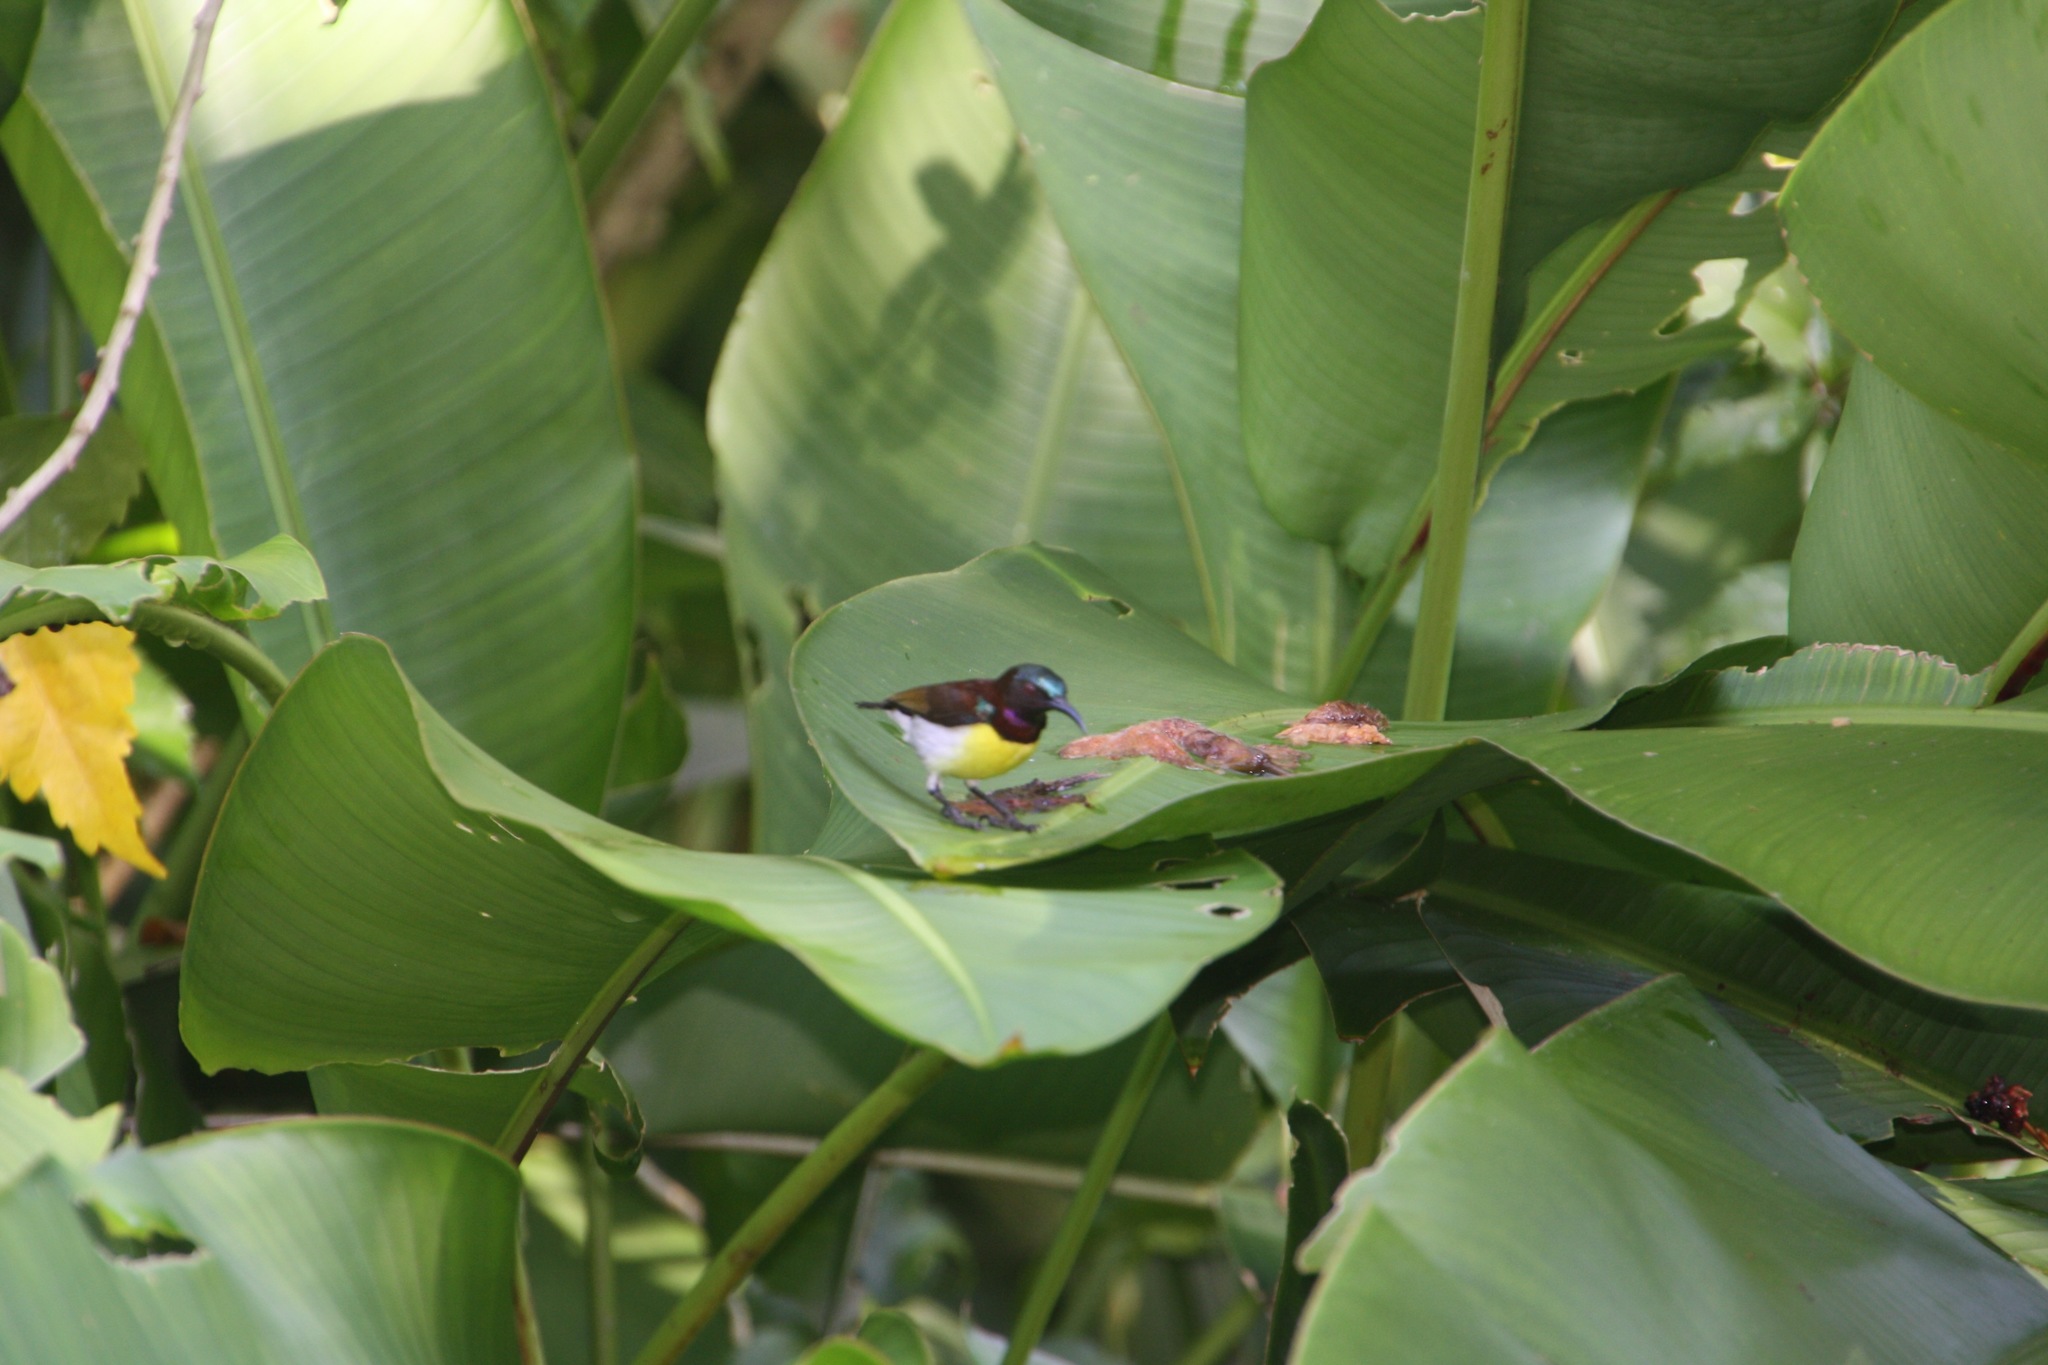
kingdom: Animalia
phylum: Chordata
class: Aves
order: Passeriformes
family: Nectariniidae
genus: Leptocoma
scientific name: Leptocoma zeylonica
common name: Purple-rumped sunbird
